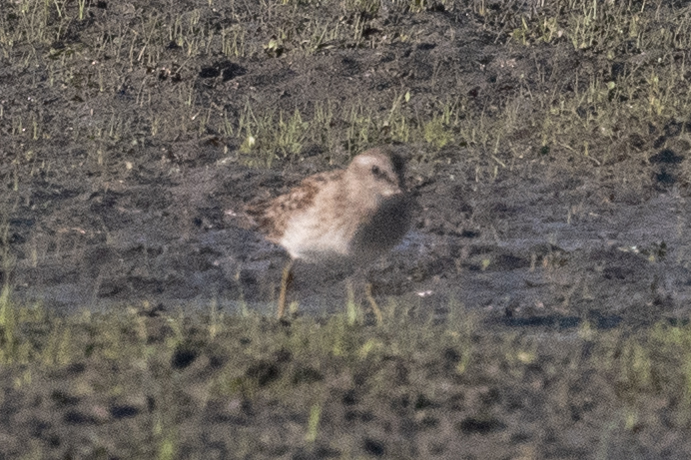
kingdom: Animalia
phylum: Chordata
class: Aves
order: Charadriiformes
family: Scolopacidae
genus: Calidris
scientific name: Calidris minutilla
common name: Least sandpiper
